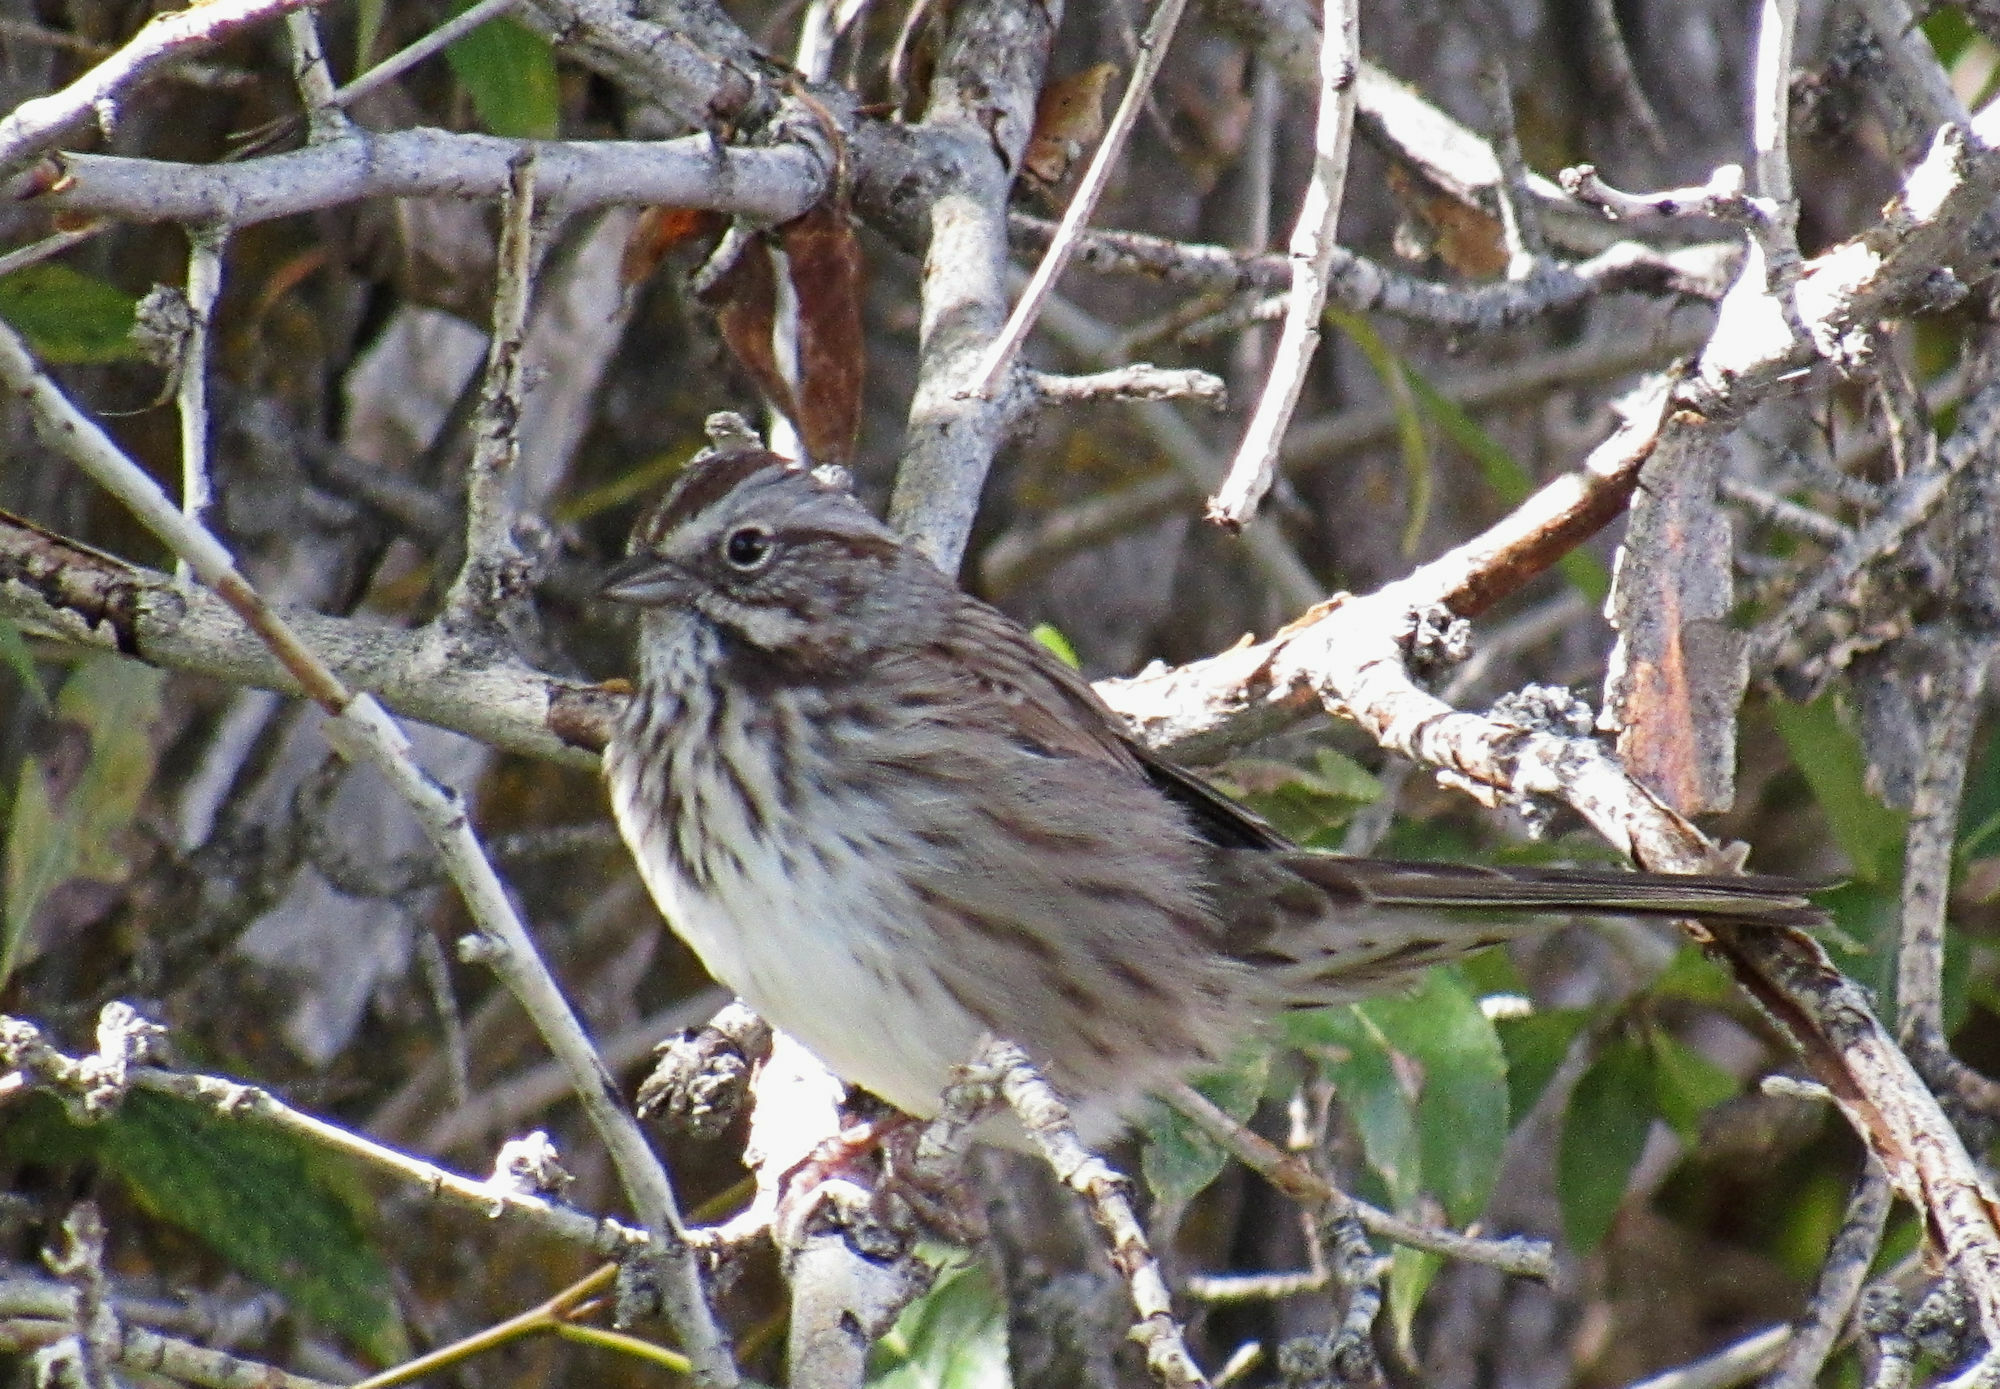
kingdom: Animalia
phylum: Chordata
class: Aves
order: Passeriformes
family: Passerellidae
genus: Melospiza
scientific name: Melospiza melodia
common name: Song sparrow
